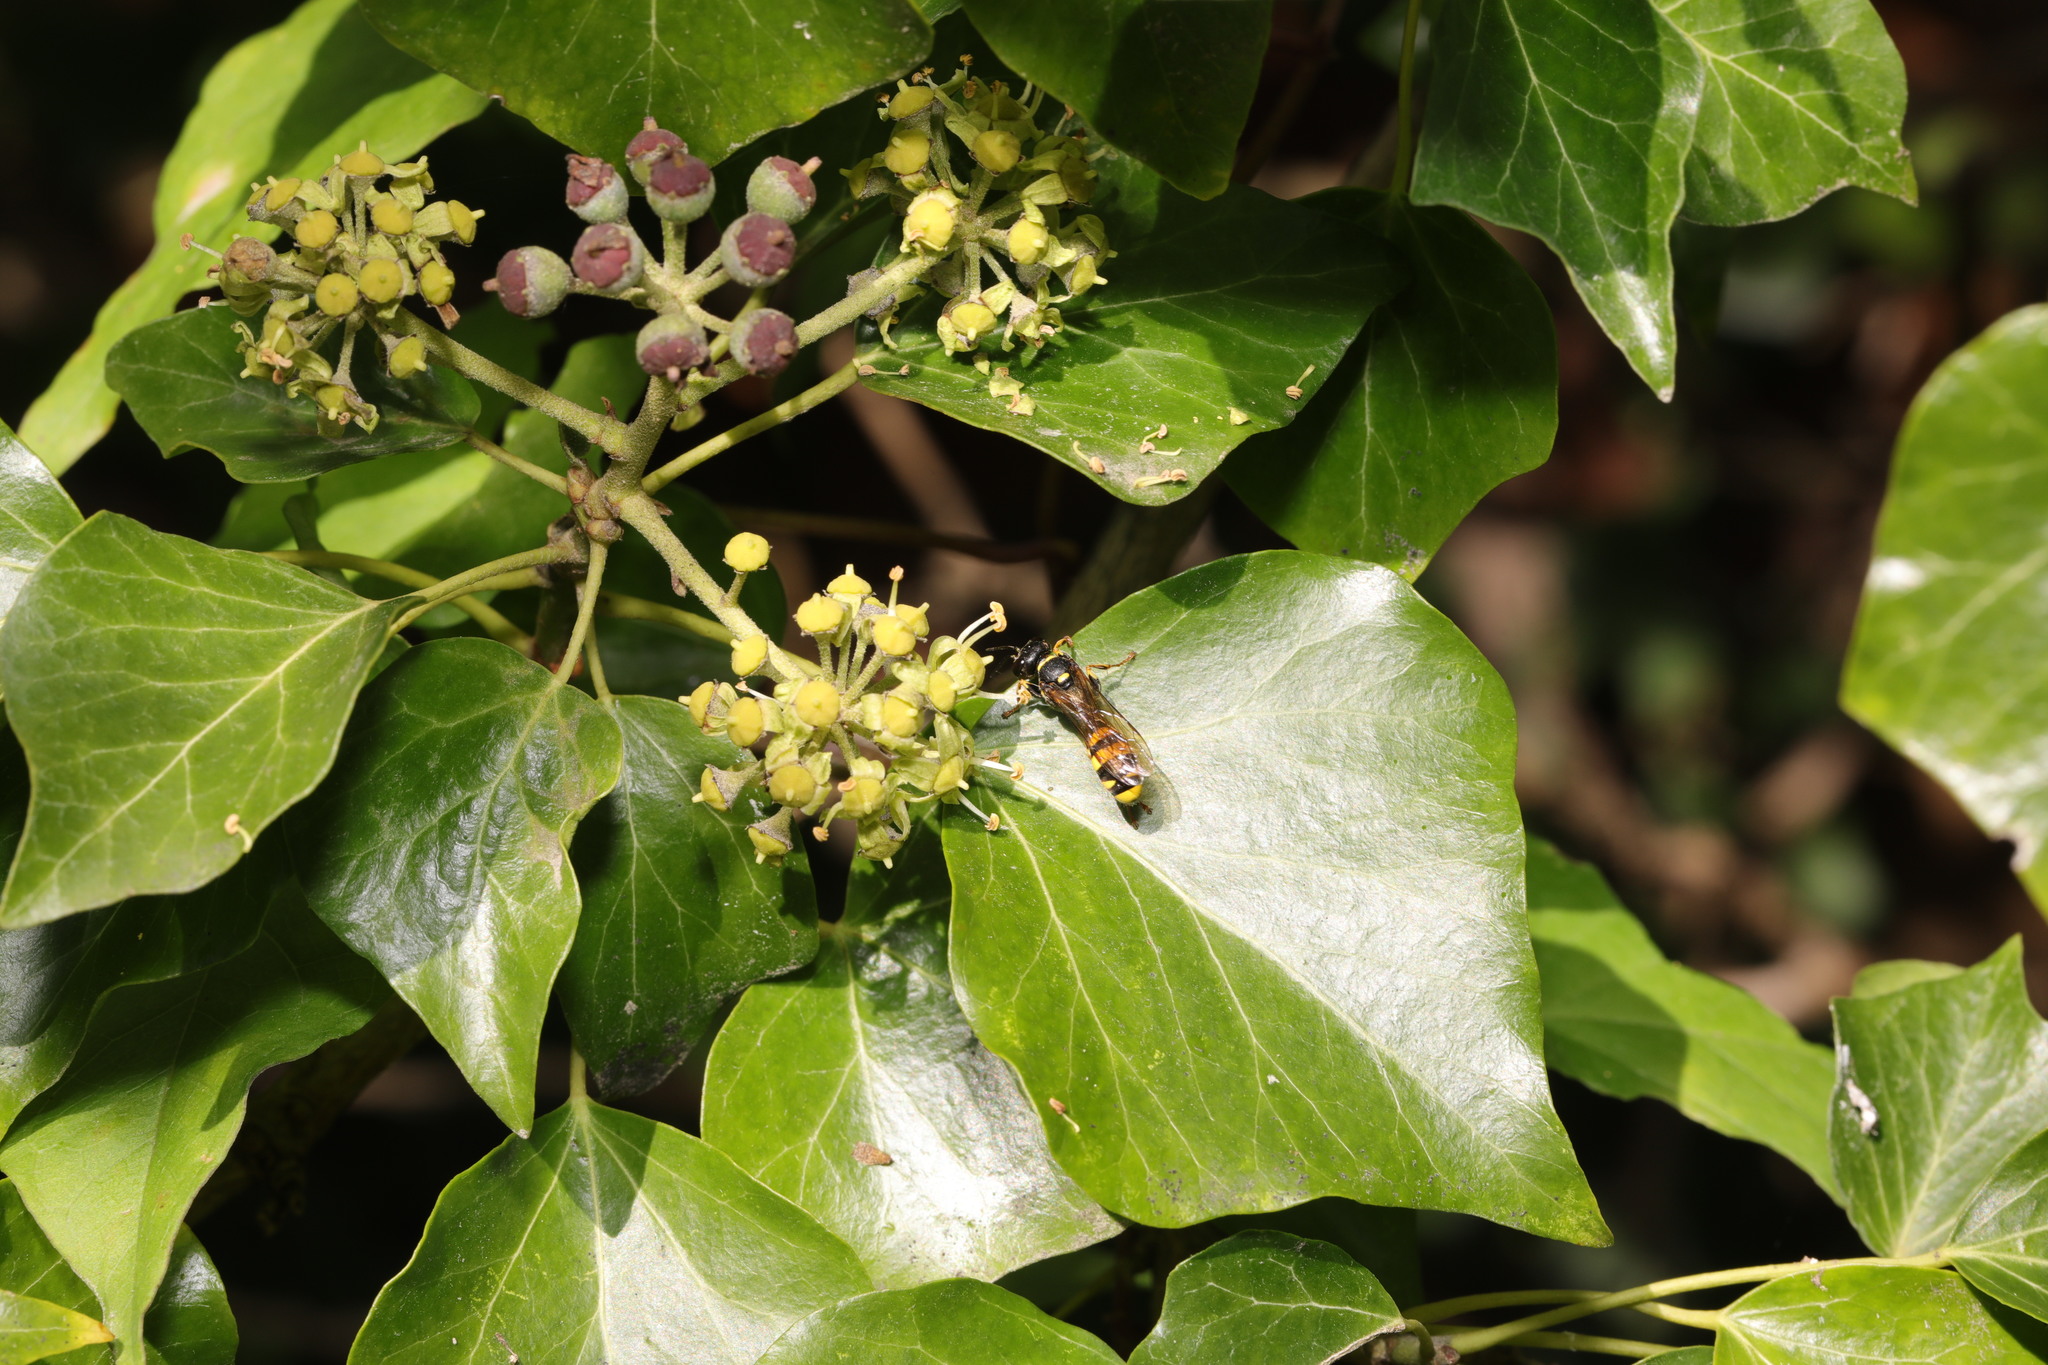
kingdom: Animalia
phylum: Arthropoda
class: Insecta
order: Hymenoptera
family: Crabronidae
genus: Mellinus
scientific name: Mellinus arvensis
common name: Field digger wasp
